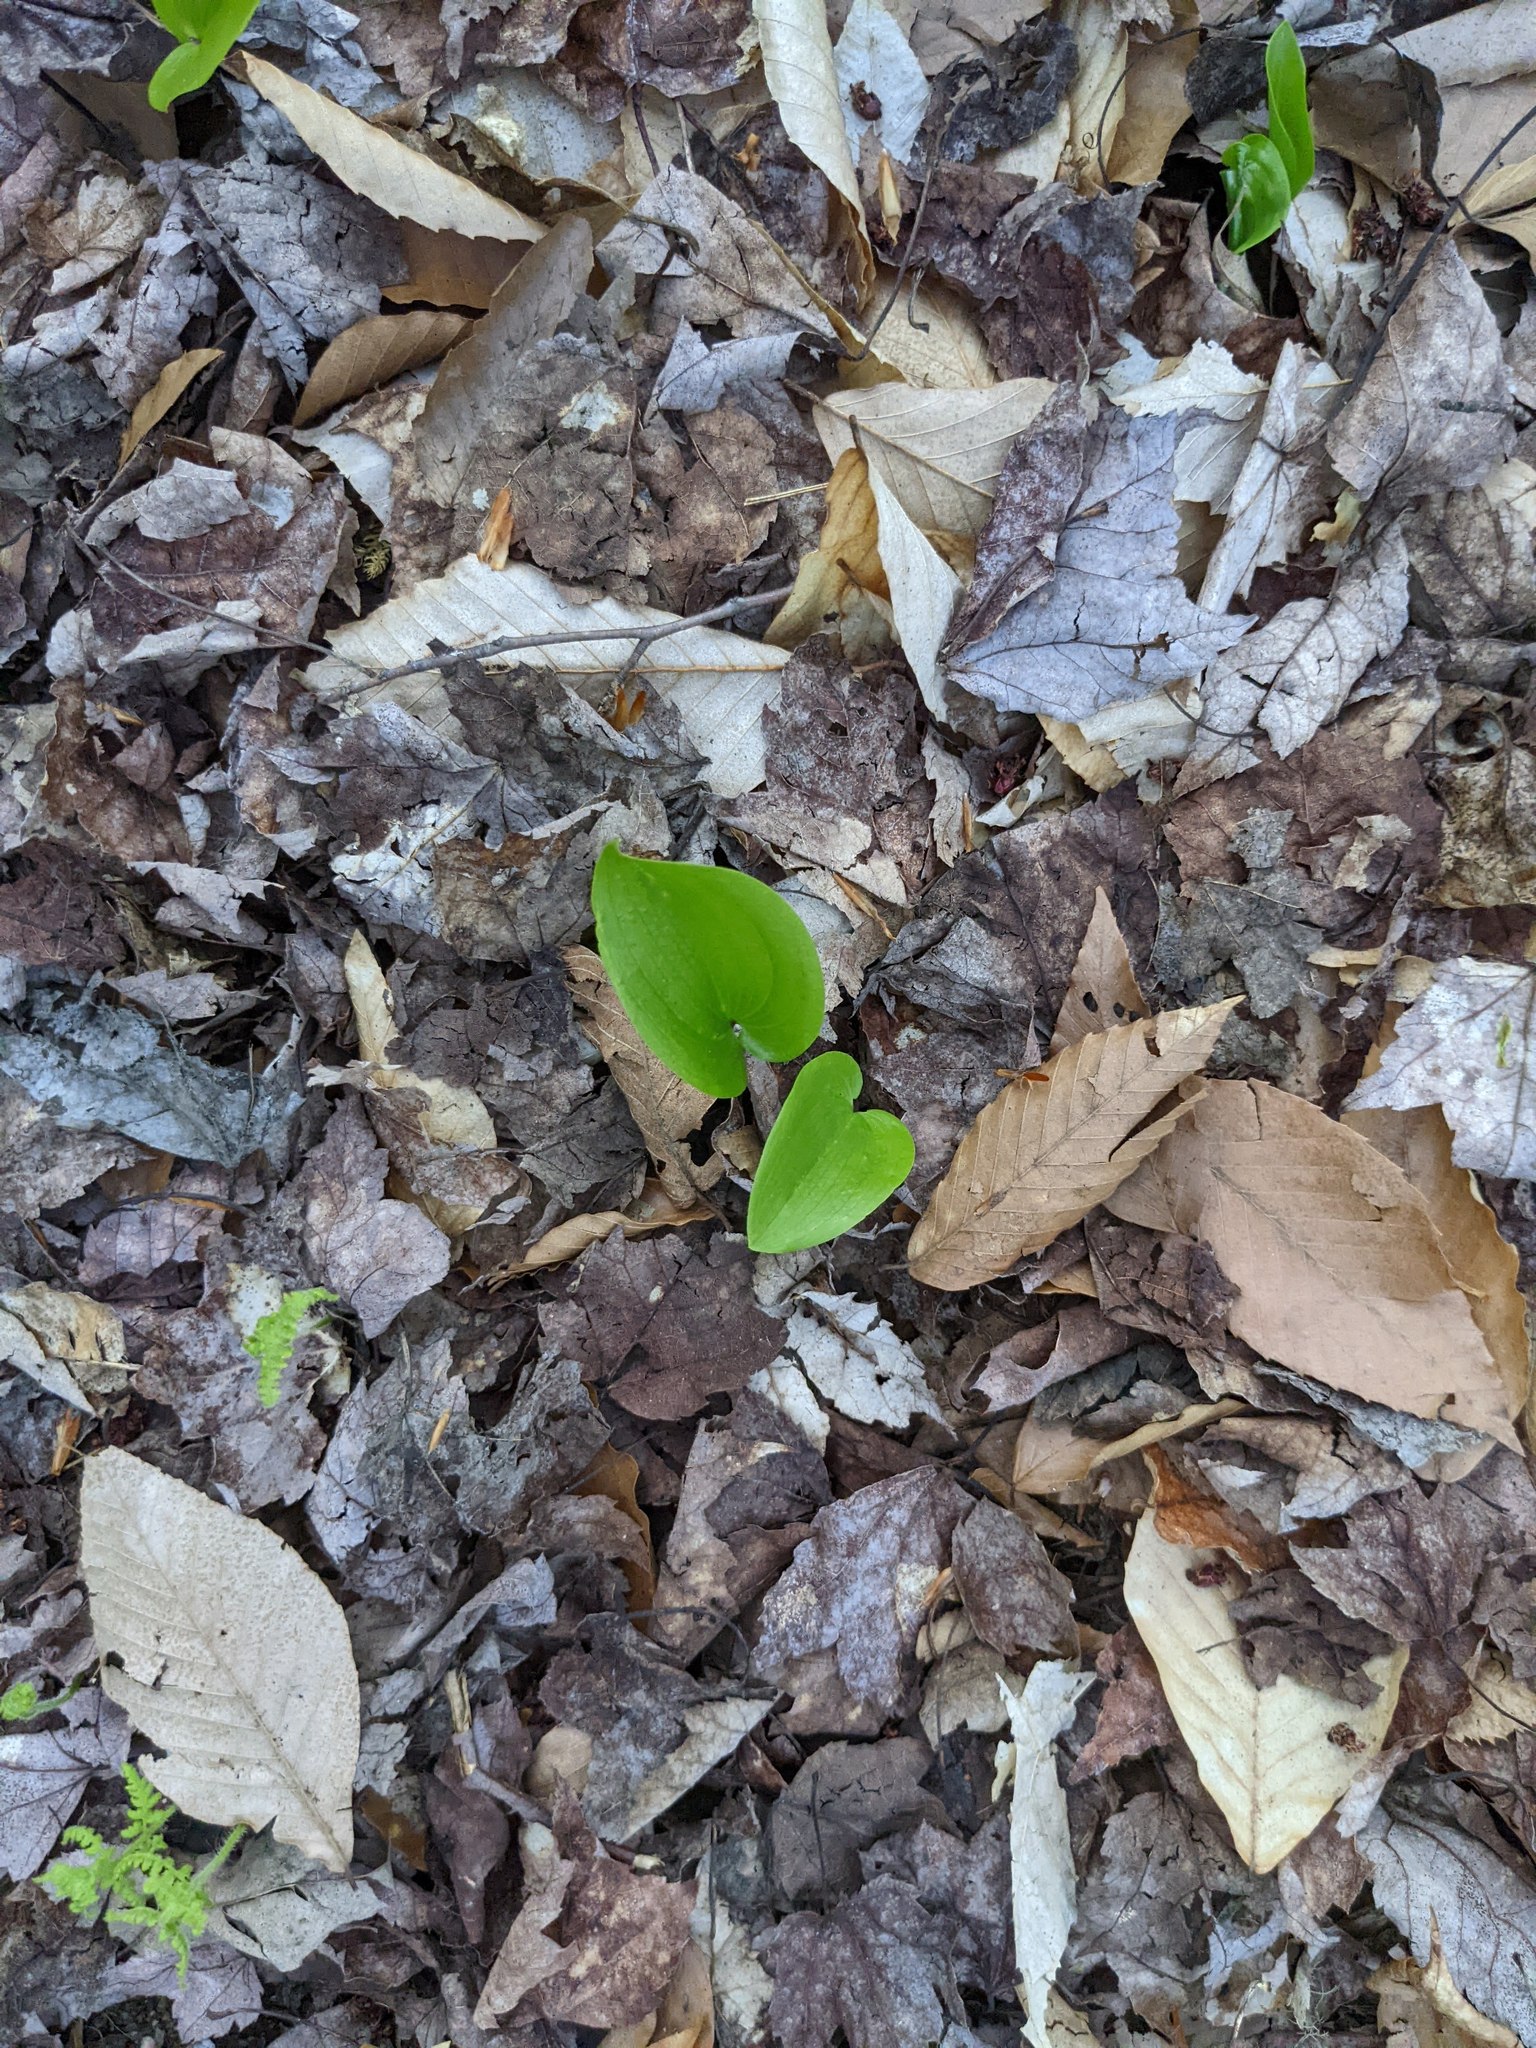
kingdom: Plantae
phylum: Tracheophyta
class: Liliopsida
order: Asparagales
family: Asparagaceae
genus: Maianthemum
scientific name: Maianthemum canadense
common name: False lily-of-the-valley
